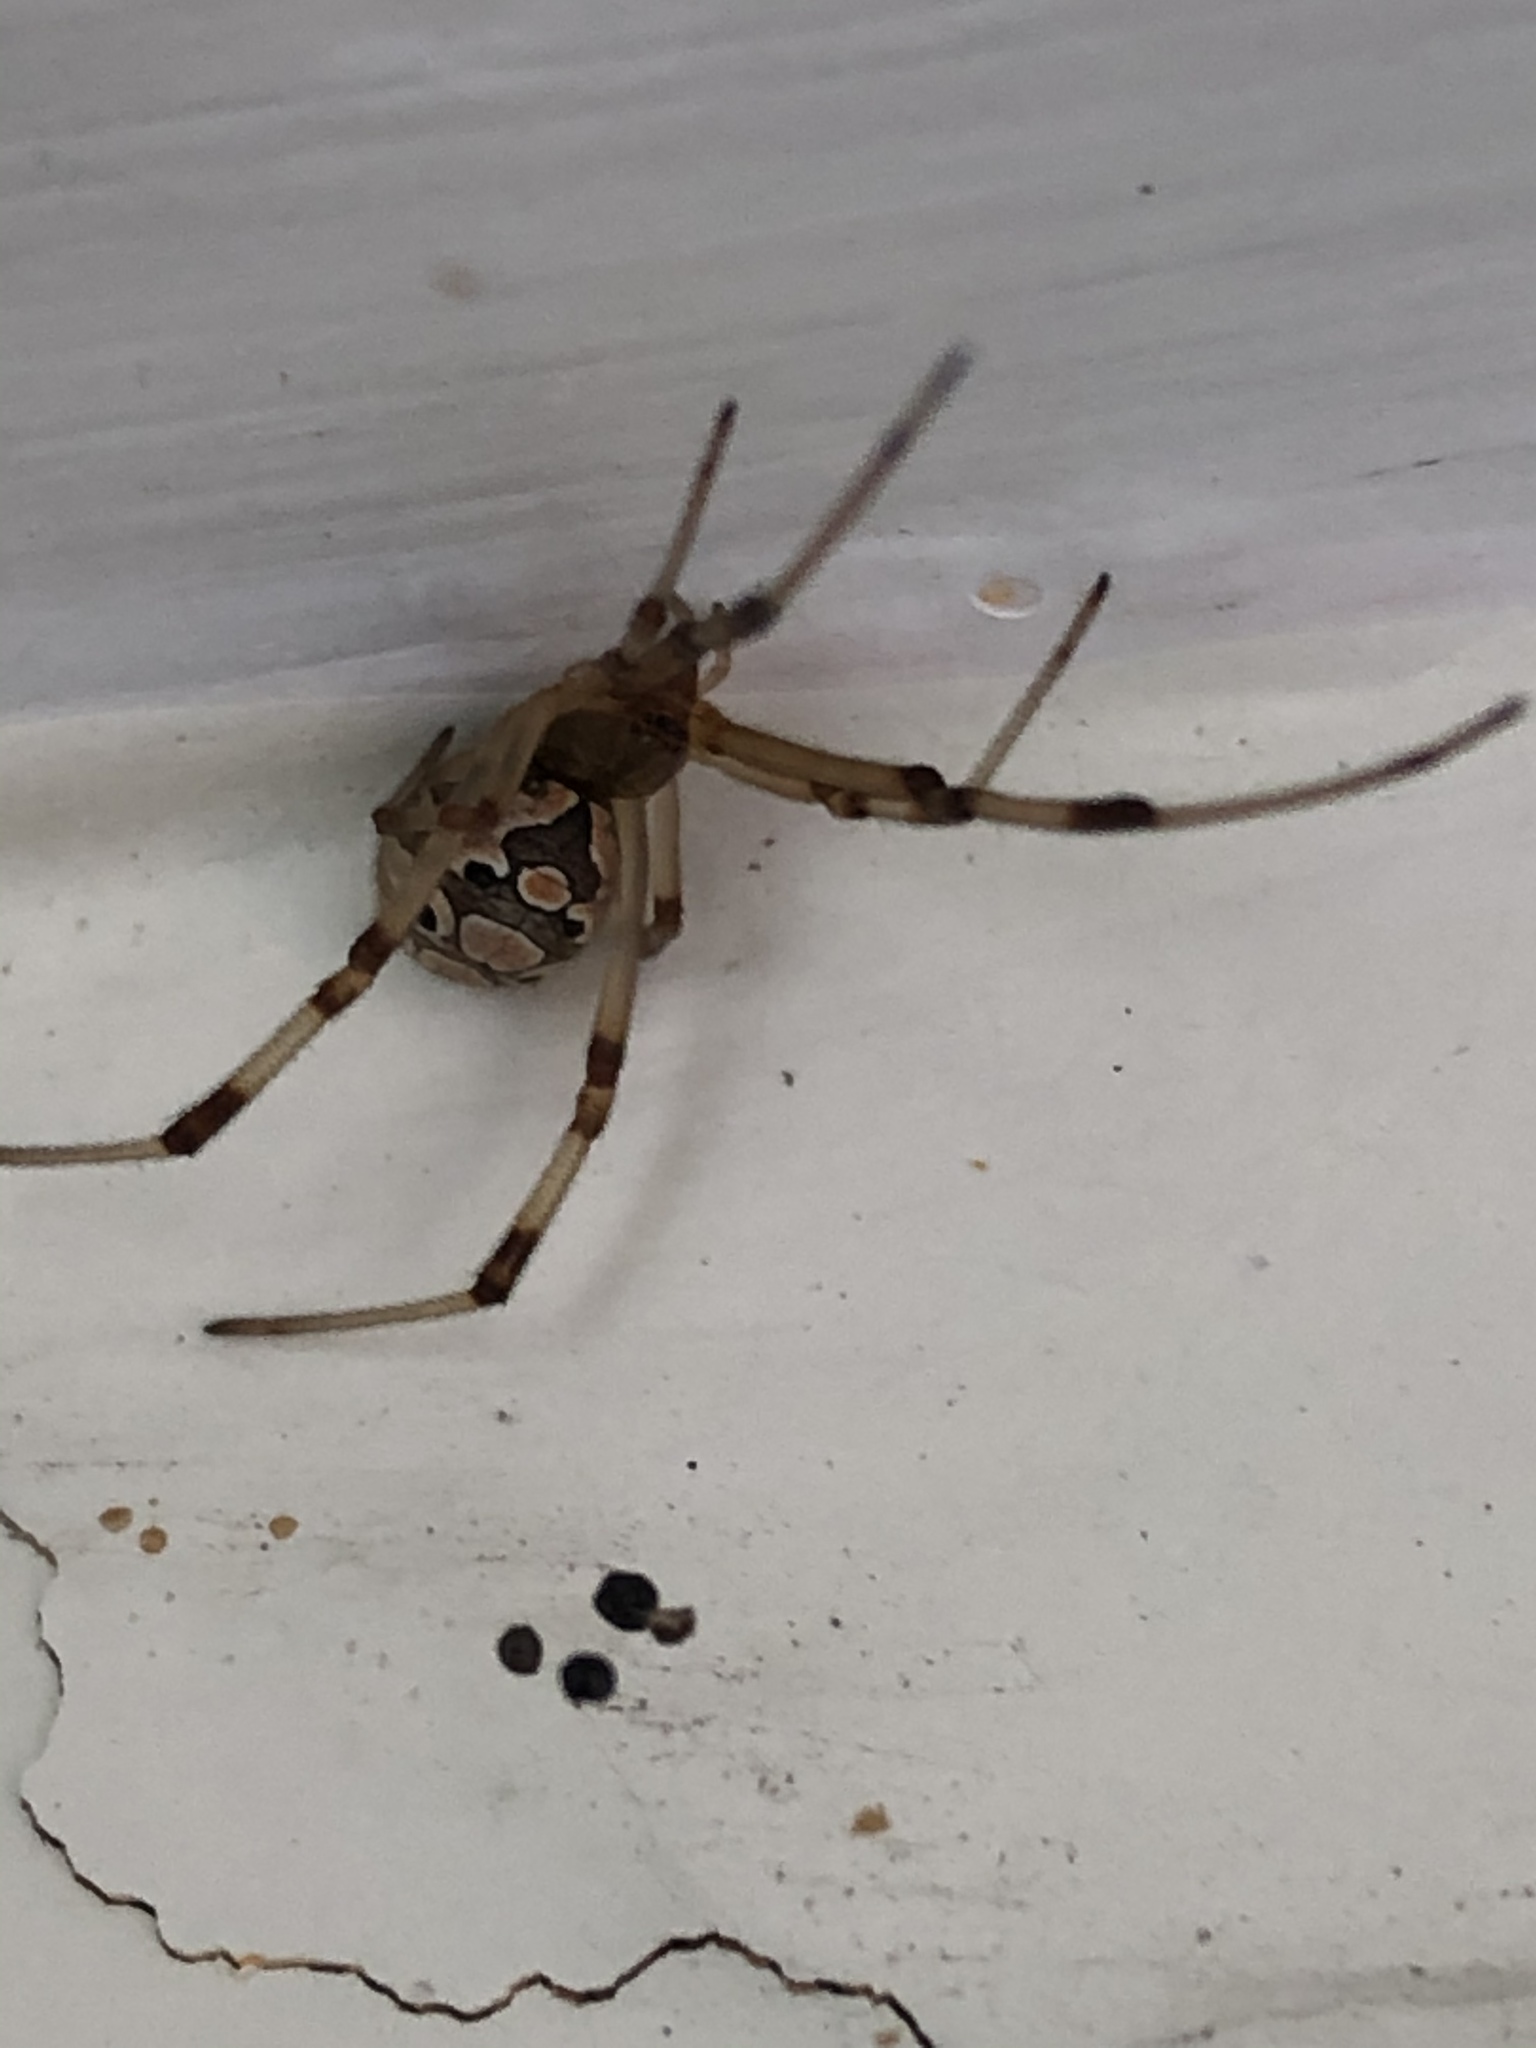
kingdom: Animalia
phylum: Arthropoda
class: Arachnida
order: Araneae
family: Theridiidae
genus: Latrodectus
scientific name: Latrodectus geometricus
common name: Brown widow spider
